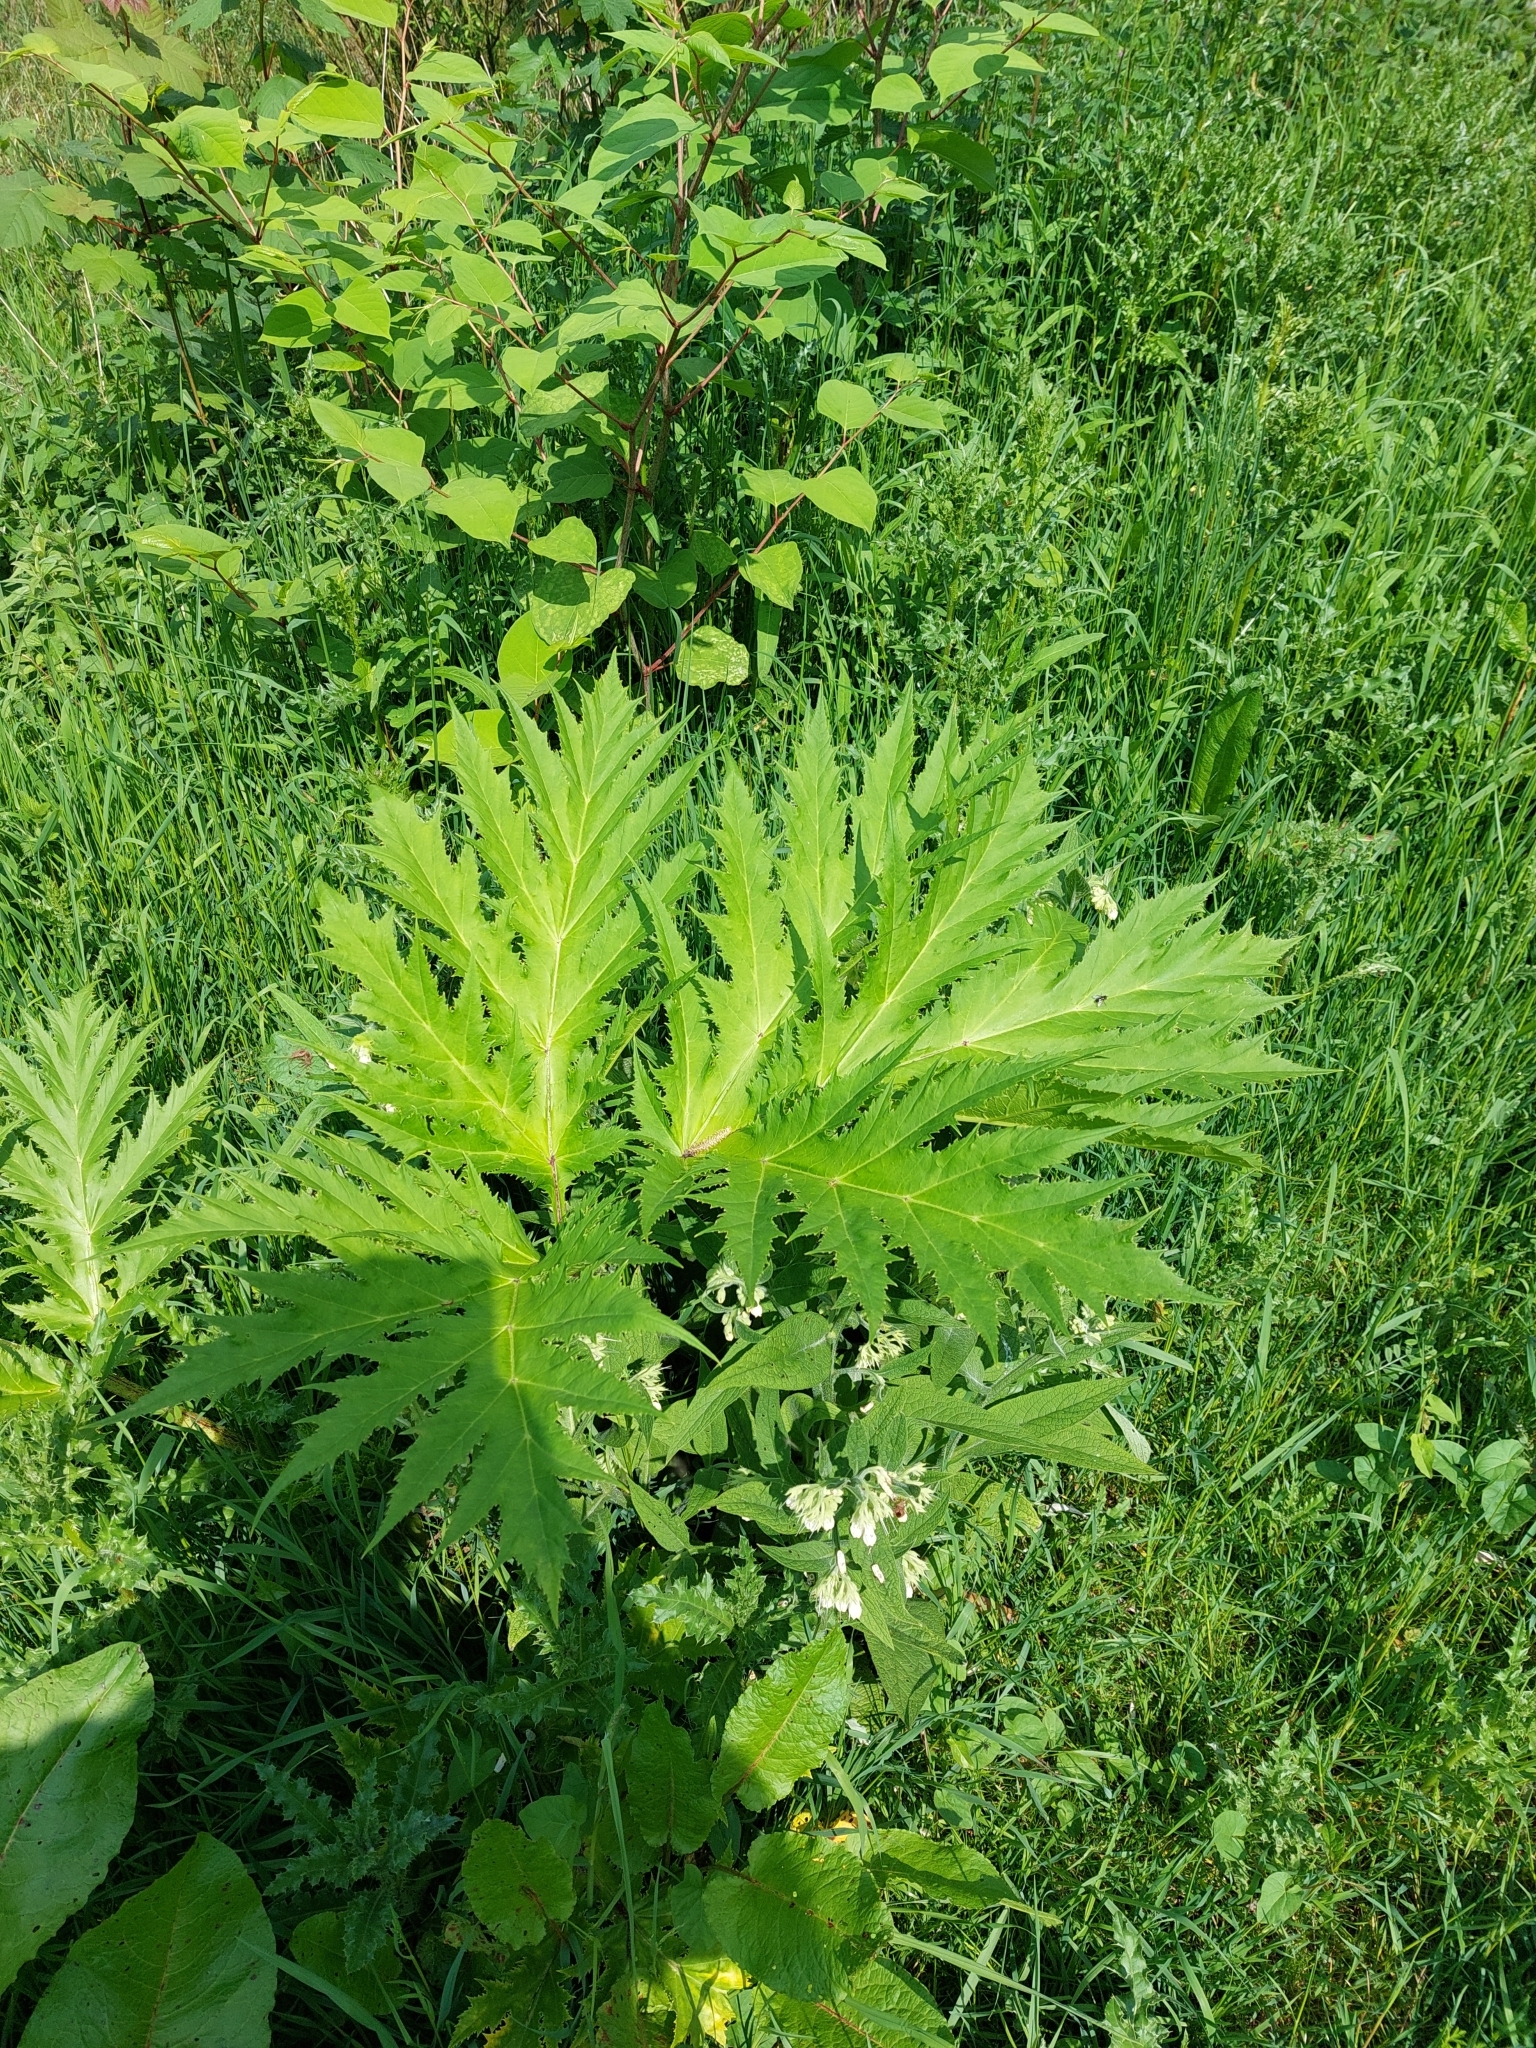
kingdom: Plantae
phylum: Tracheophyta
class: Magnoliopsida
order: Apiales
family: Apiaceae
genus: Heracleum
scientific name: Heracleum mantegazzianum
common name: Giant hogweed
